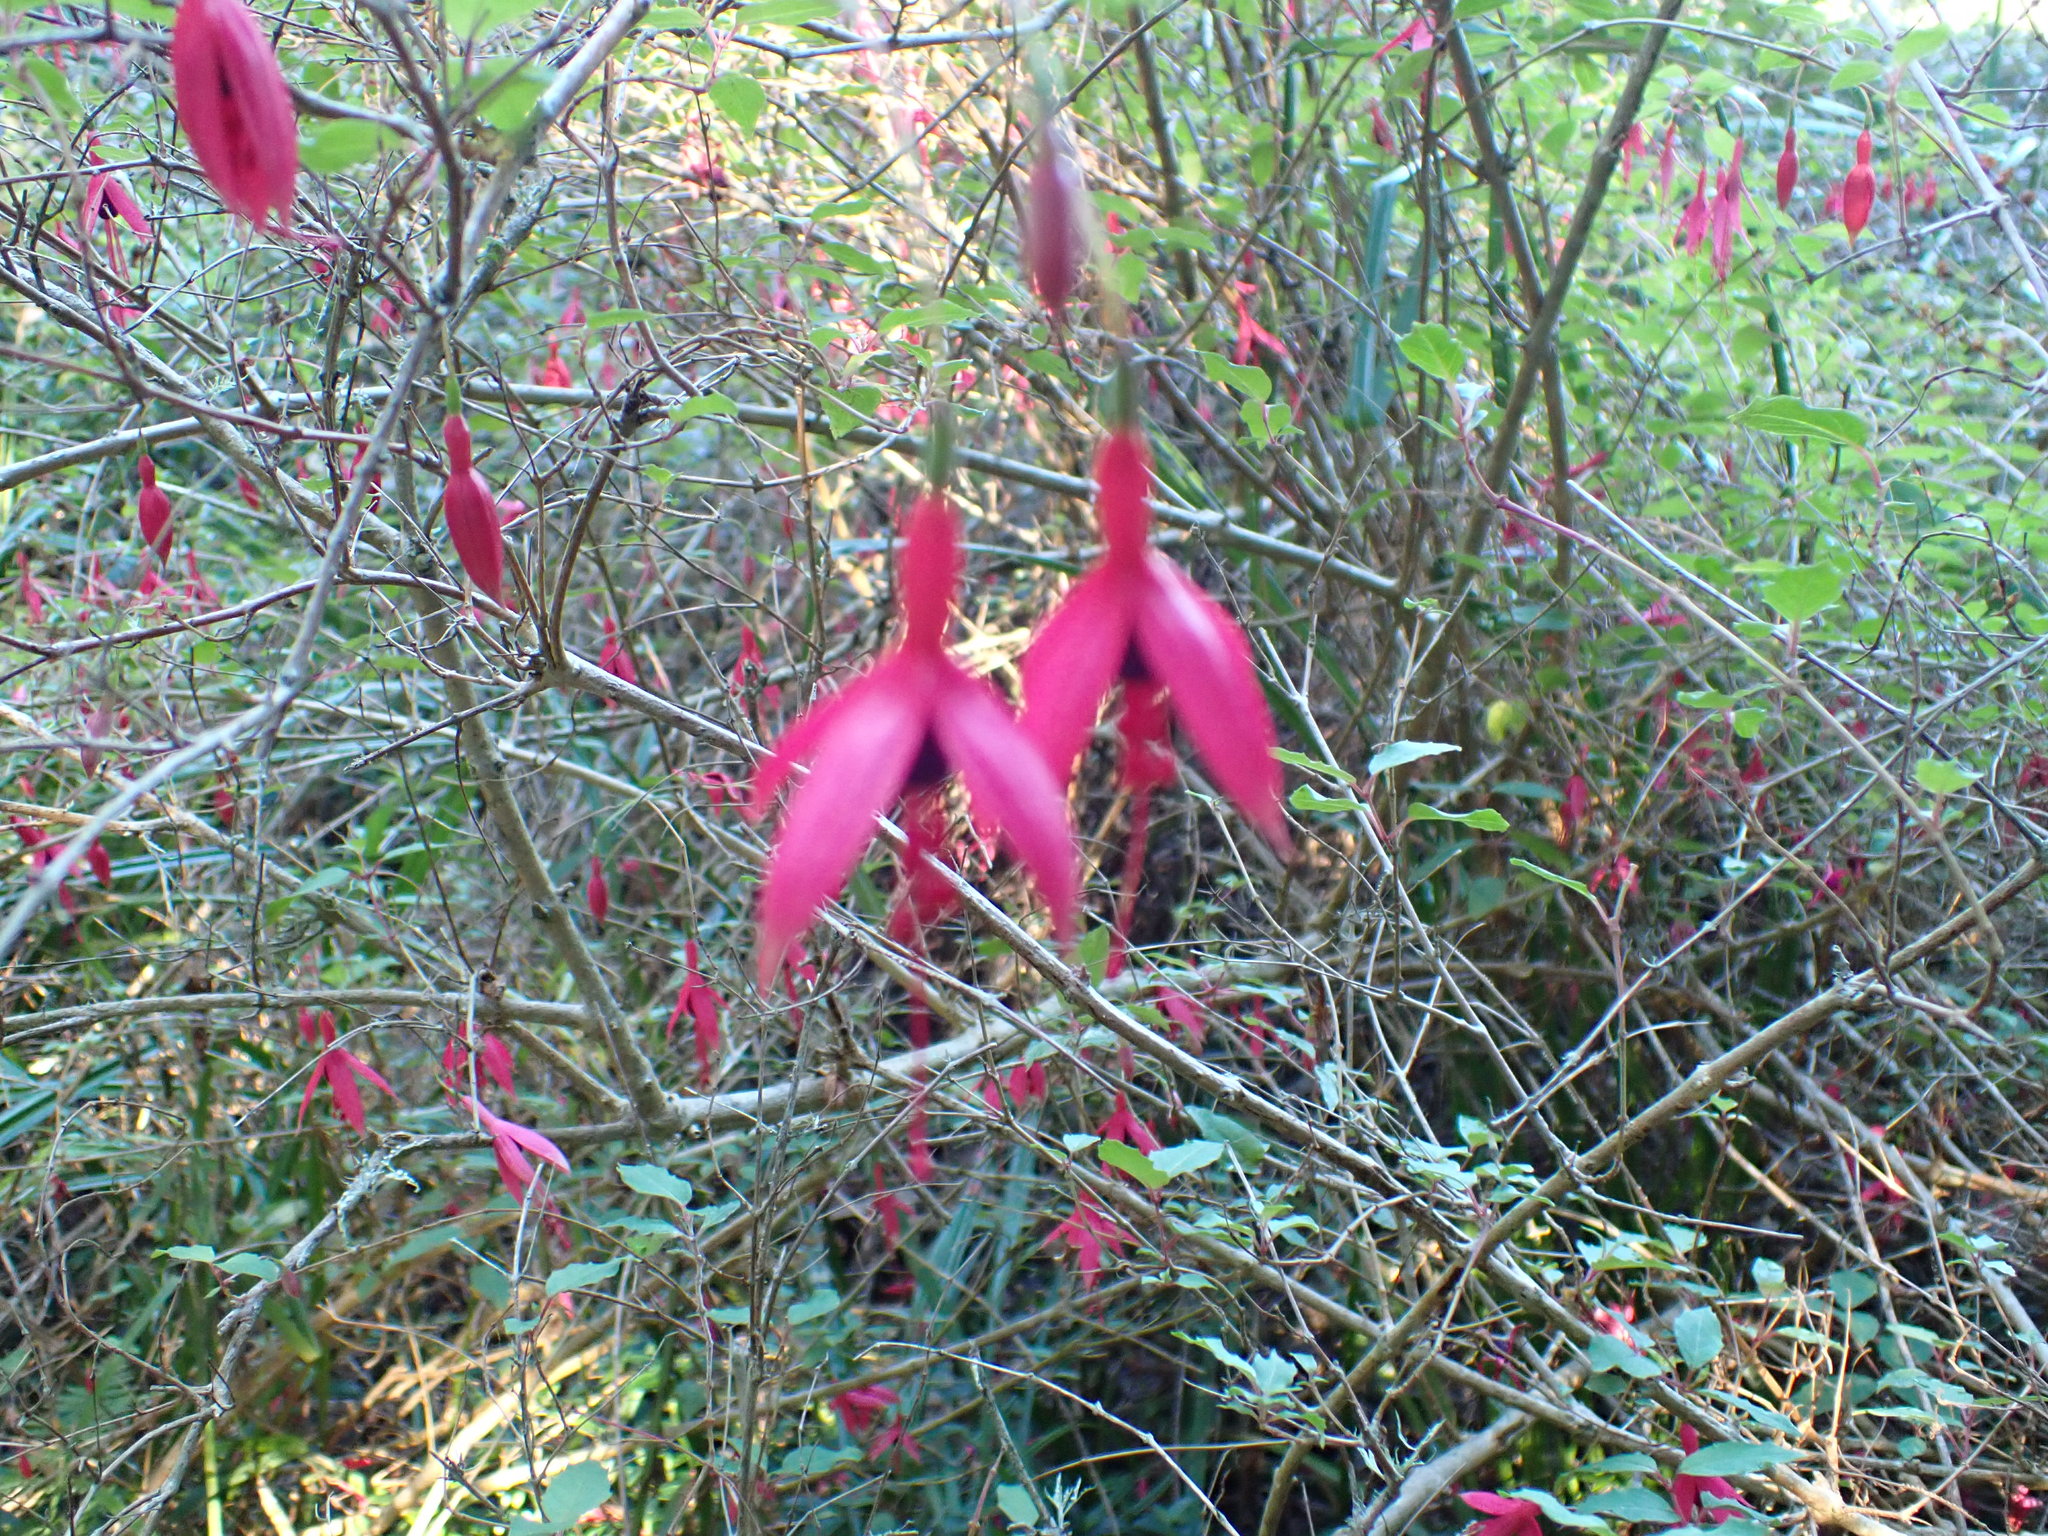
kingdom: Plantae
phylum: Tracheophyta
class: Magnoliopsida
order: Myrtales
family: Onagraceae
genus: Fuchsia
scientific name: Fuchsia magellanica
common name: Hardy fuchsia
